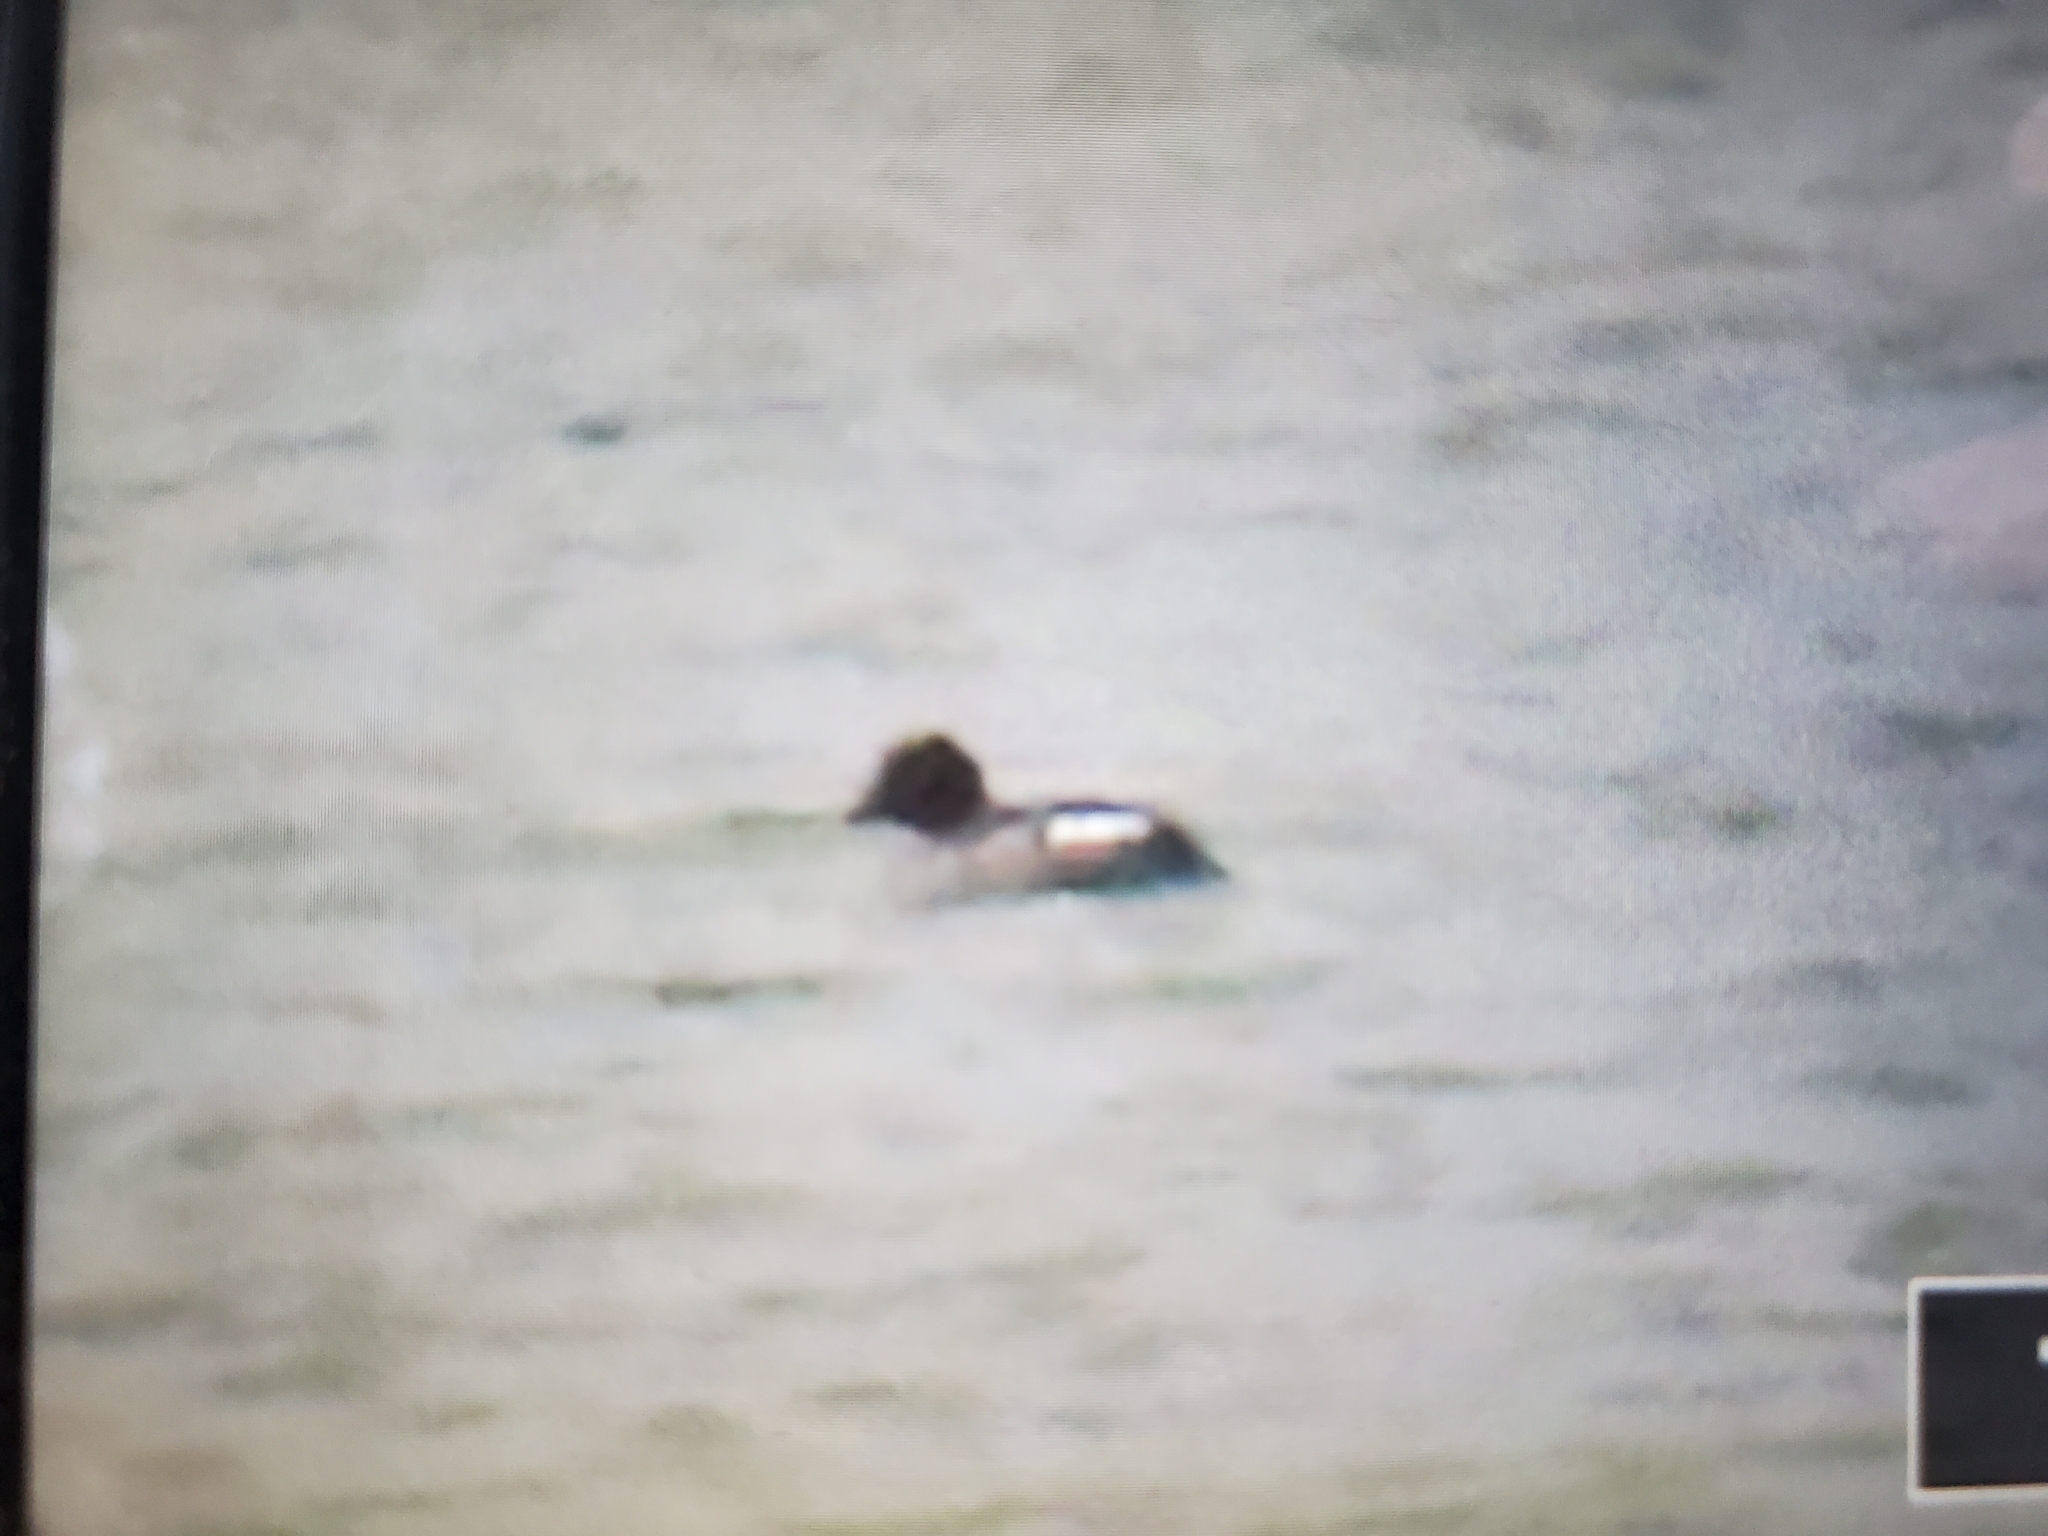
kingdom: Animalia
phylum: Chordata
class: Aves
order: Anseriformes
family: Anatidae
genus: Bucephala
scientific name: Bucephala clangula
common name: Common goldeneye
